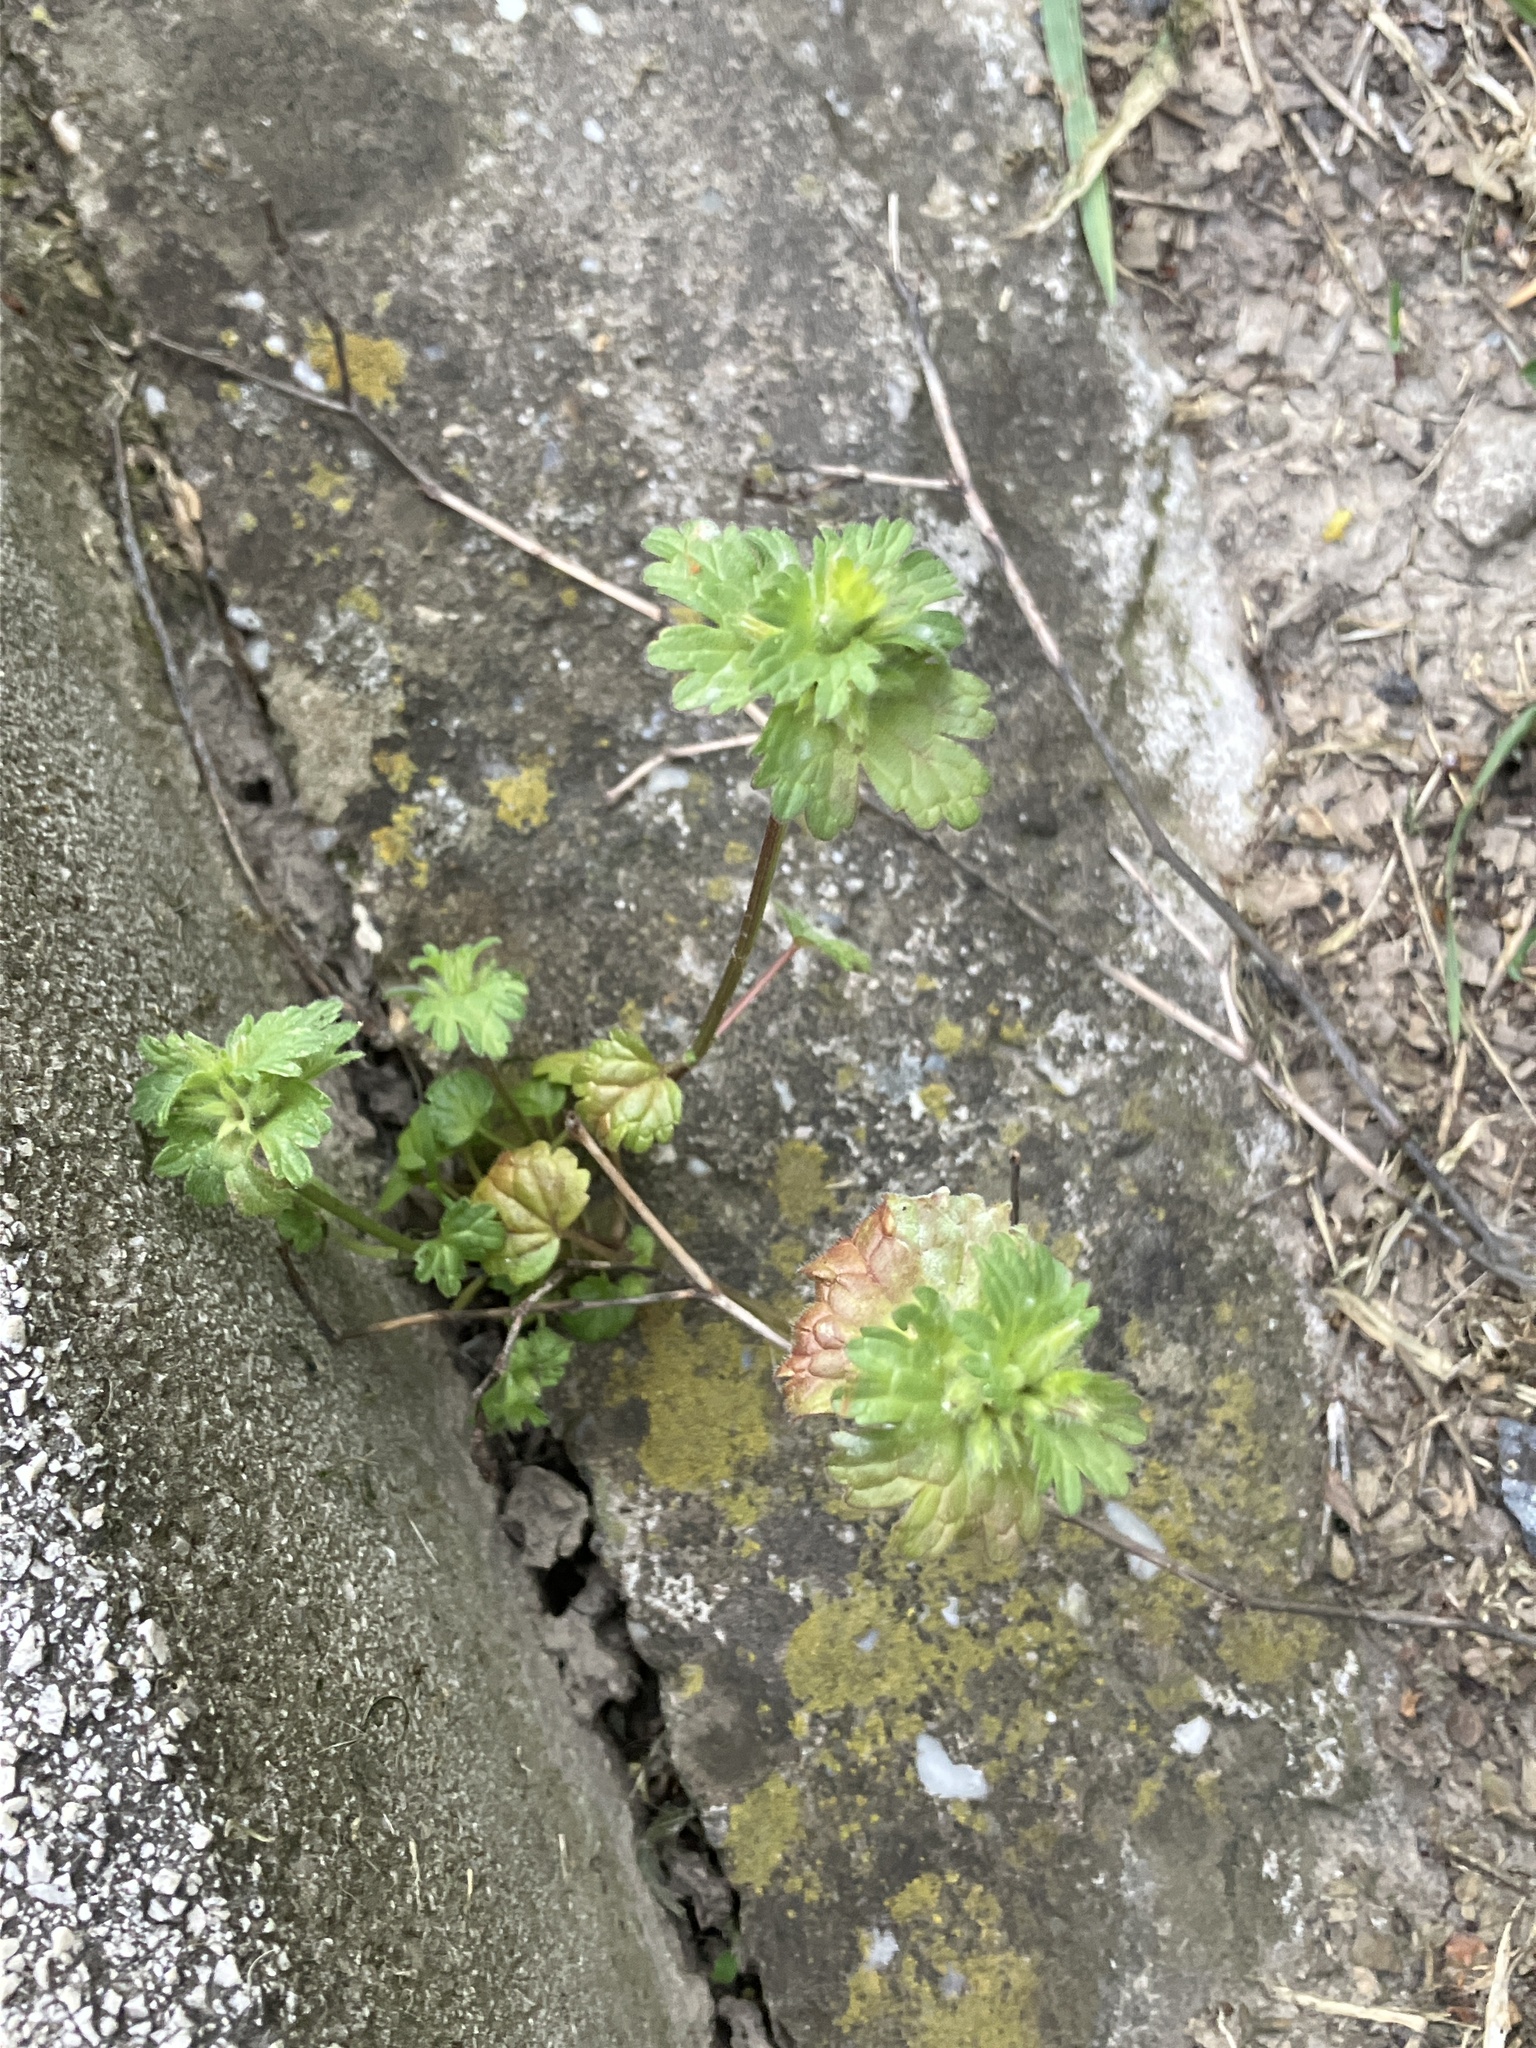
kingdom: Plantae
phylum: Tracheophyta
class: Magnoliopsida
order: Lamiales
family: Lamiaceae
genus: Lamium
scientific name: Lamium amplexicaule
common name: Henbit dead-nettle
